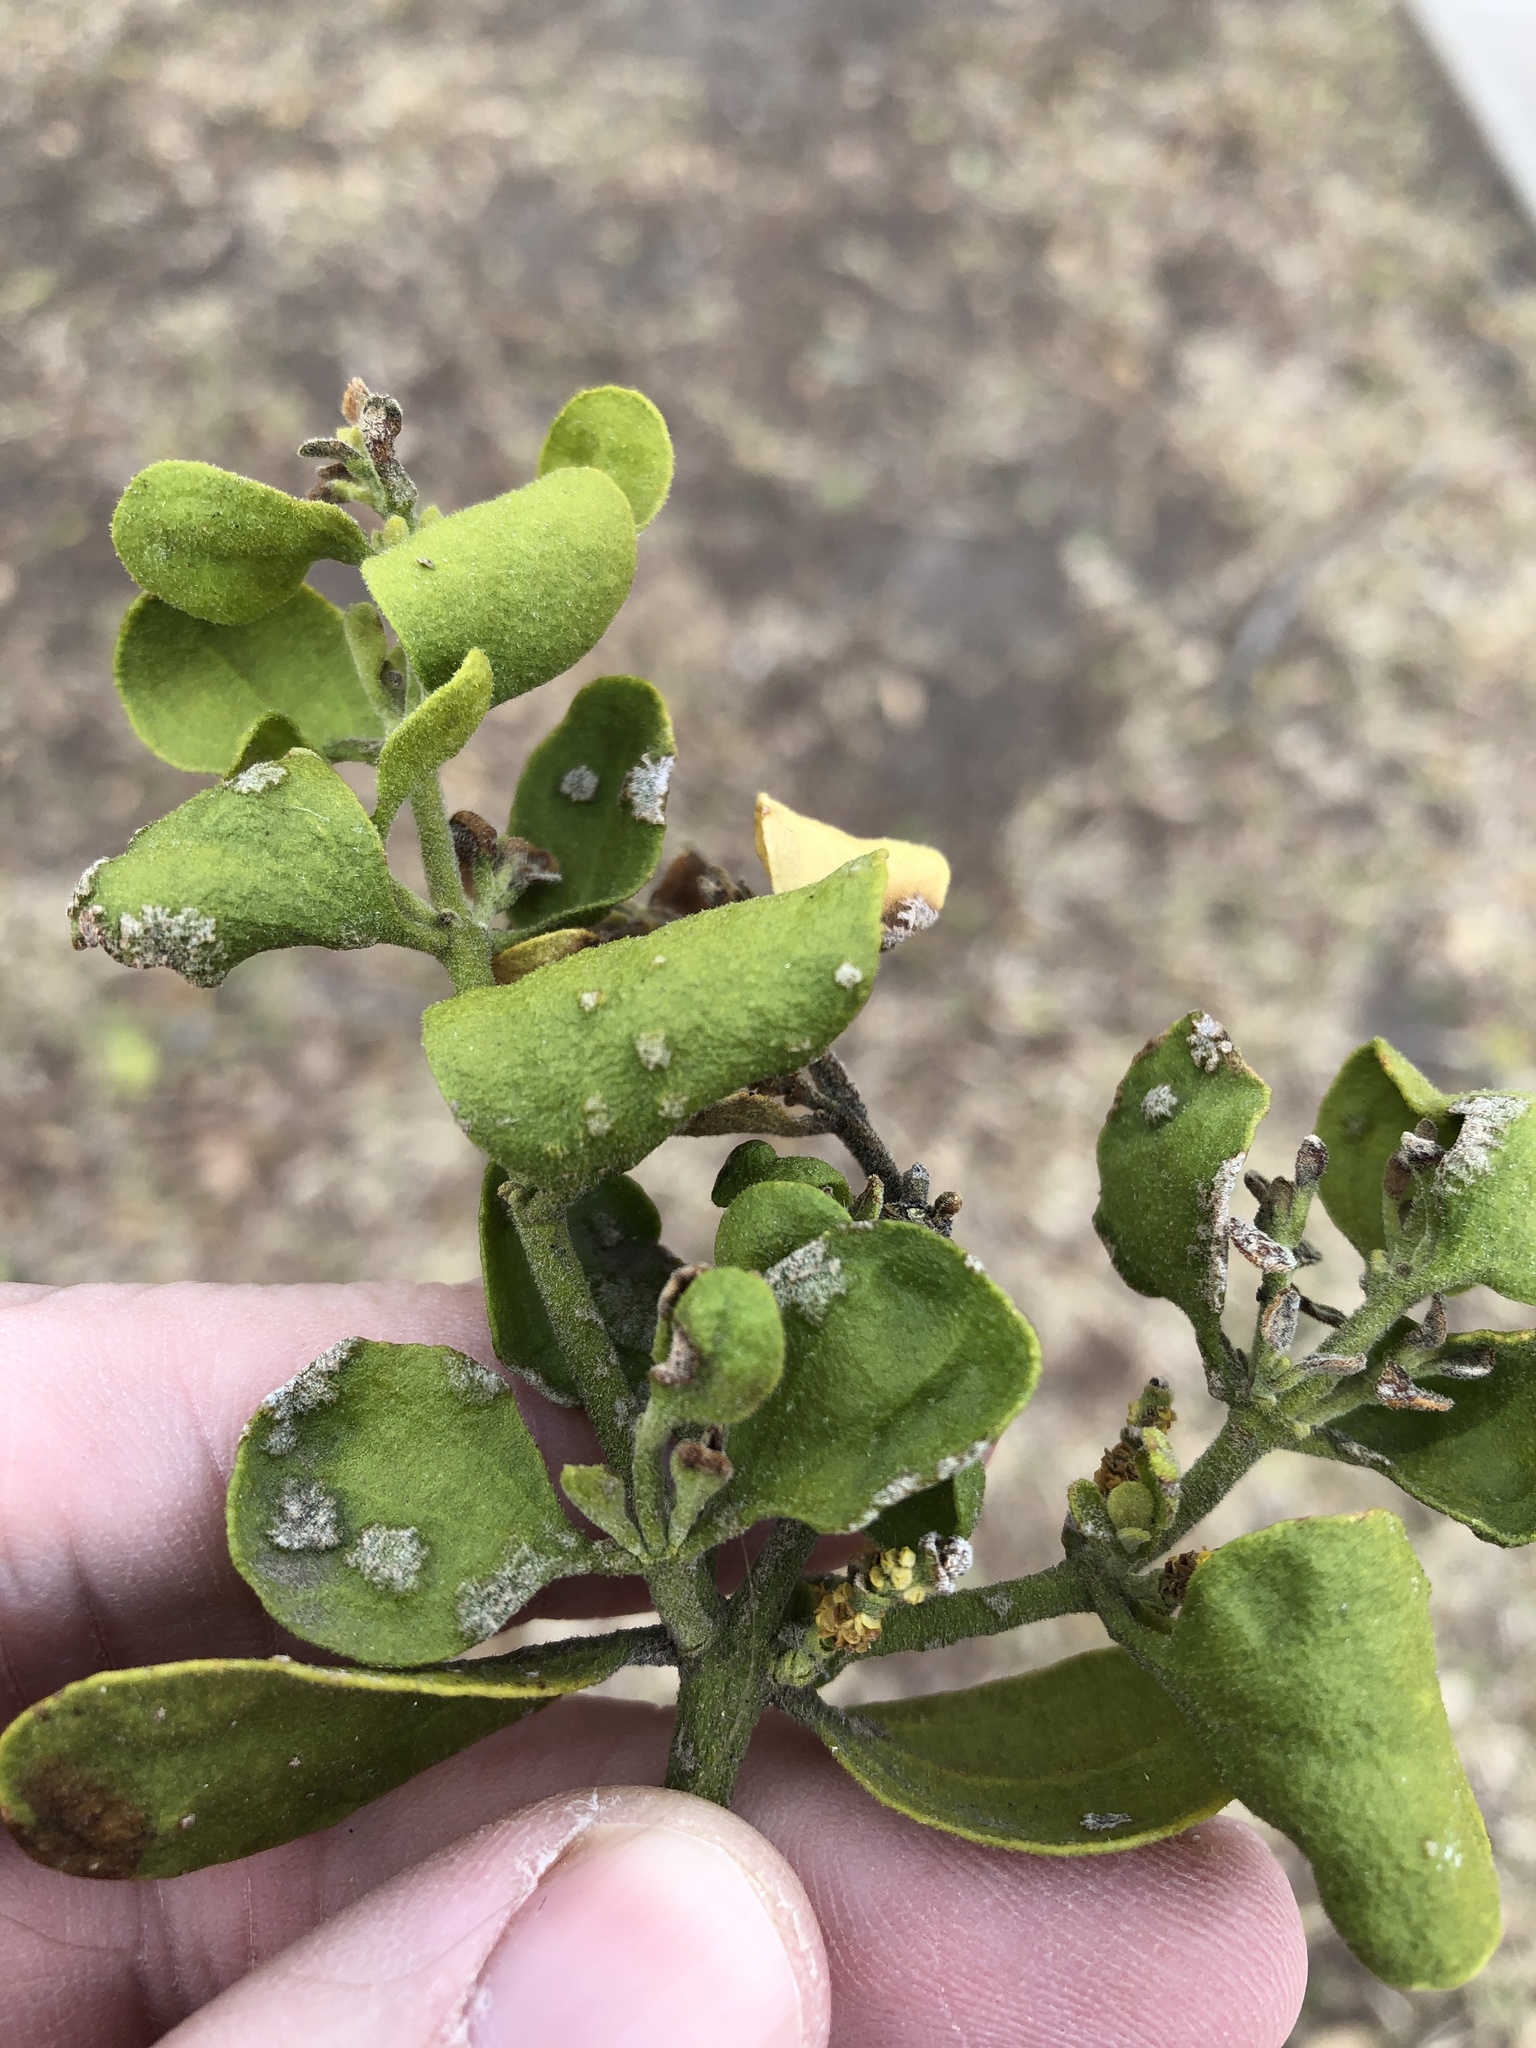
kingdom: Plantae
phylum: Tracheophyta
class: Magnoliopsida
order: Santalales
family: Viscaceae
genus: Phoradendron
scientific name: Phoradendron leucarpum
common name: Pacific mistletoe
